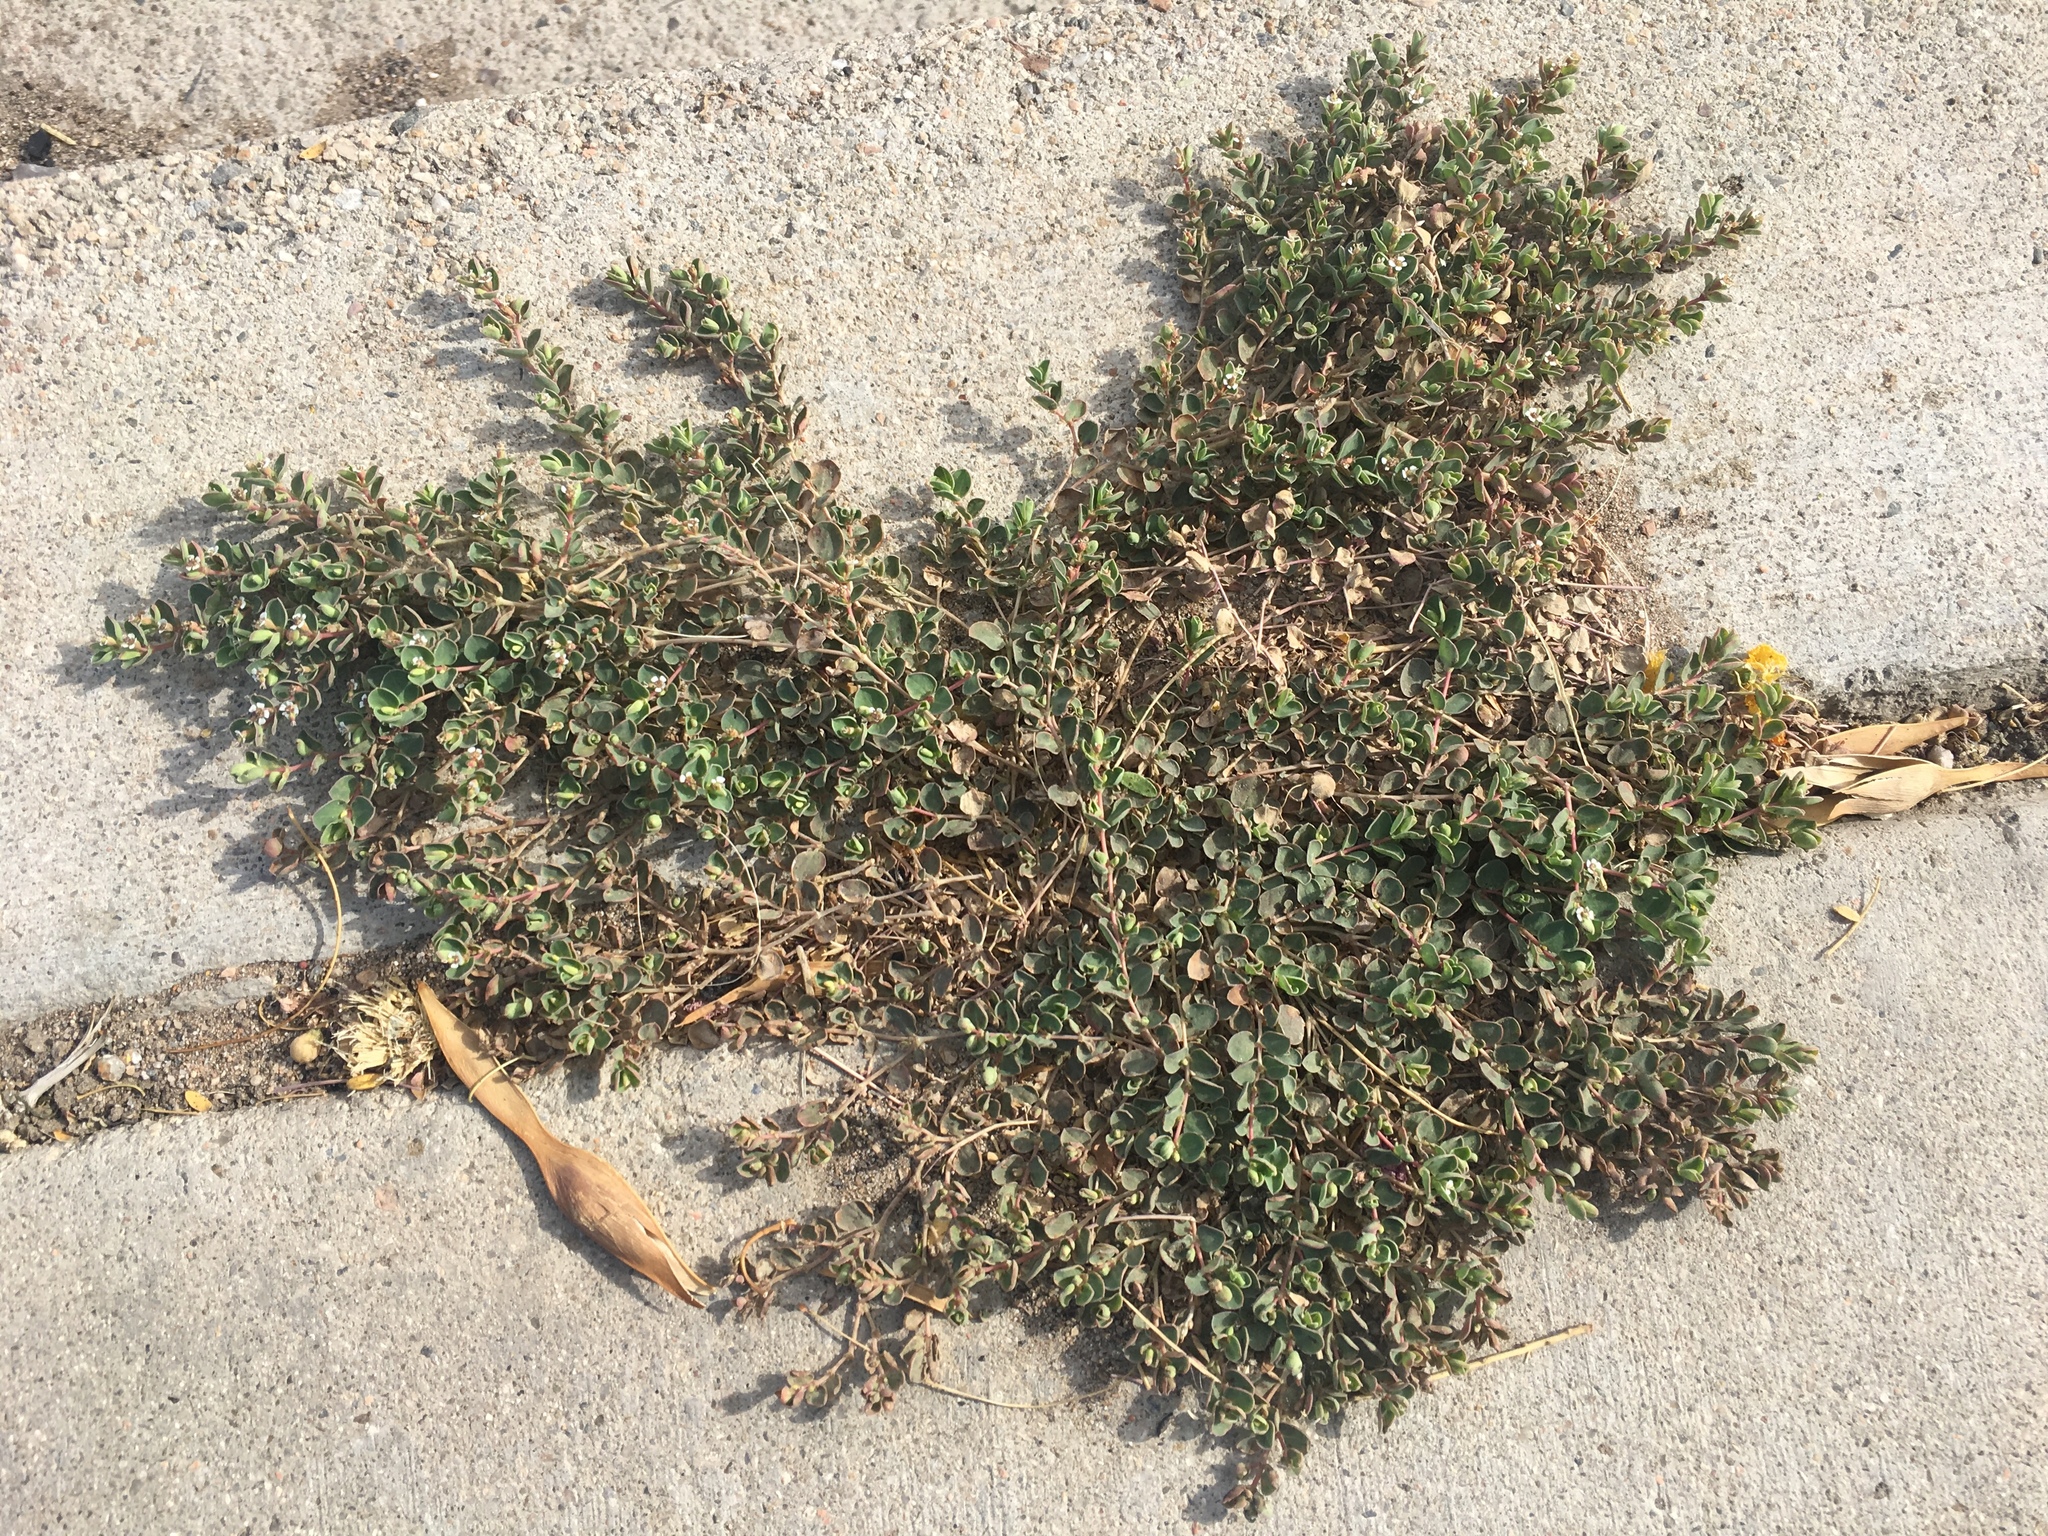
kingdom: Plantae
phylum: Tracheophyta
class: Magnoliopsida
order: Malpighiales
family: Euphorbiaceae
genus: Euphorbia
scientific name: Euphorbia albomarginata
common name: Whitemargin sandmat
